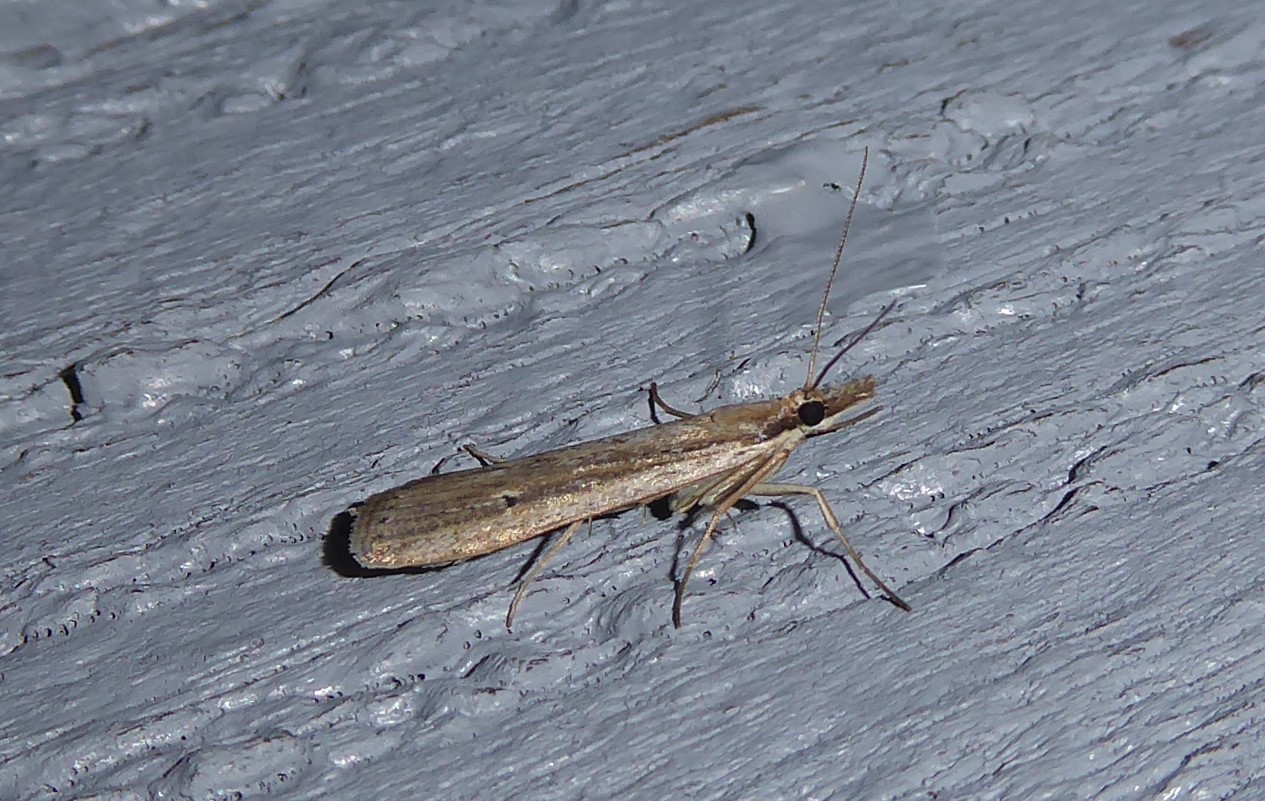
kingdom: Animalia
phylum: Arthropoda
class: Insecta
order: Lepidoptera
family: Crambidae
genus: Eudonia
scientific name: Eudonia sabulosella
